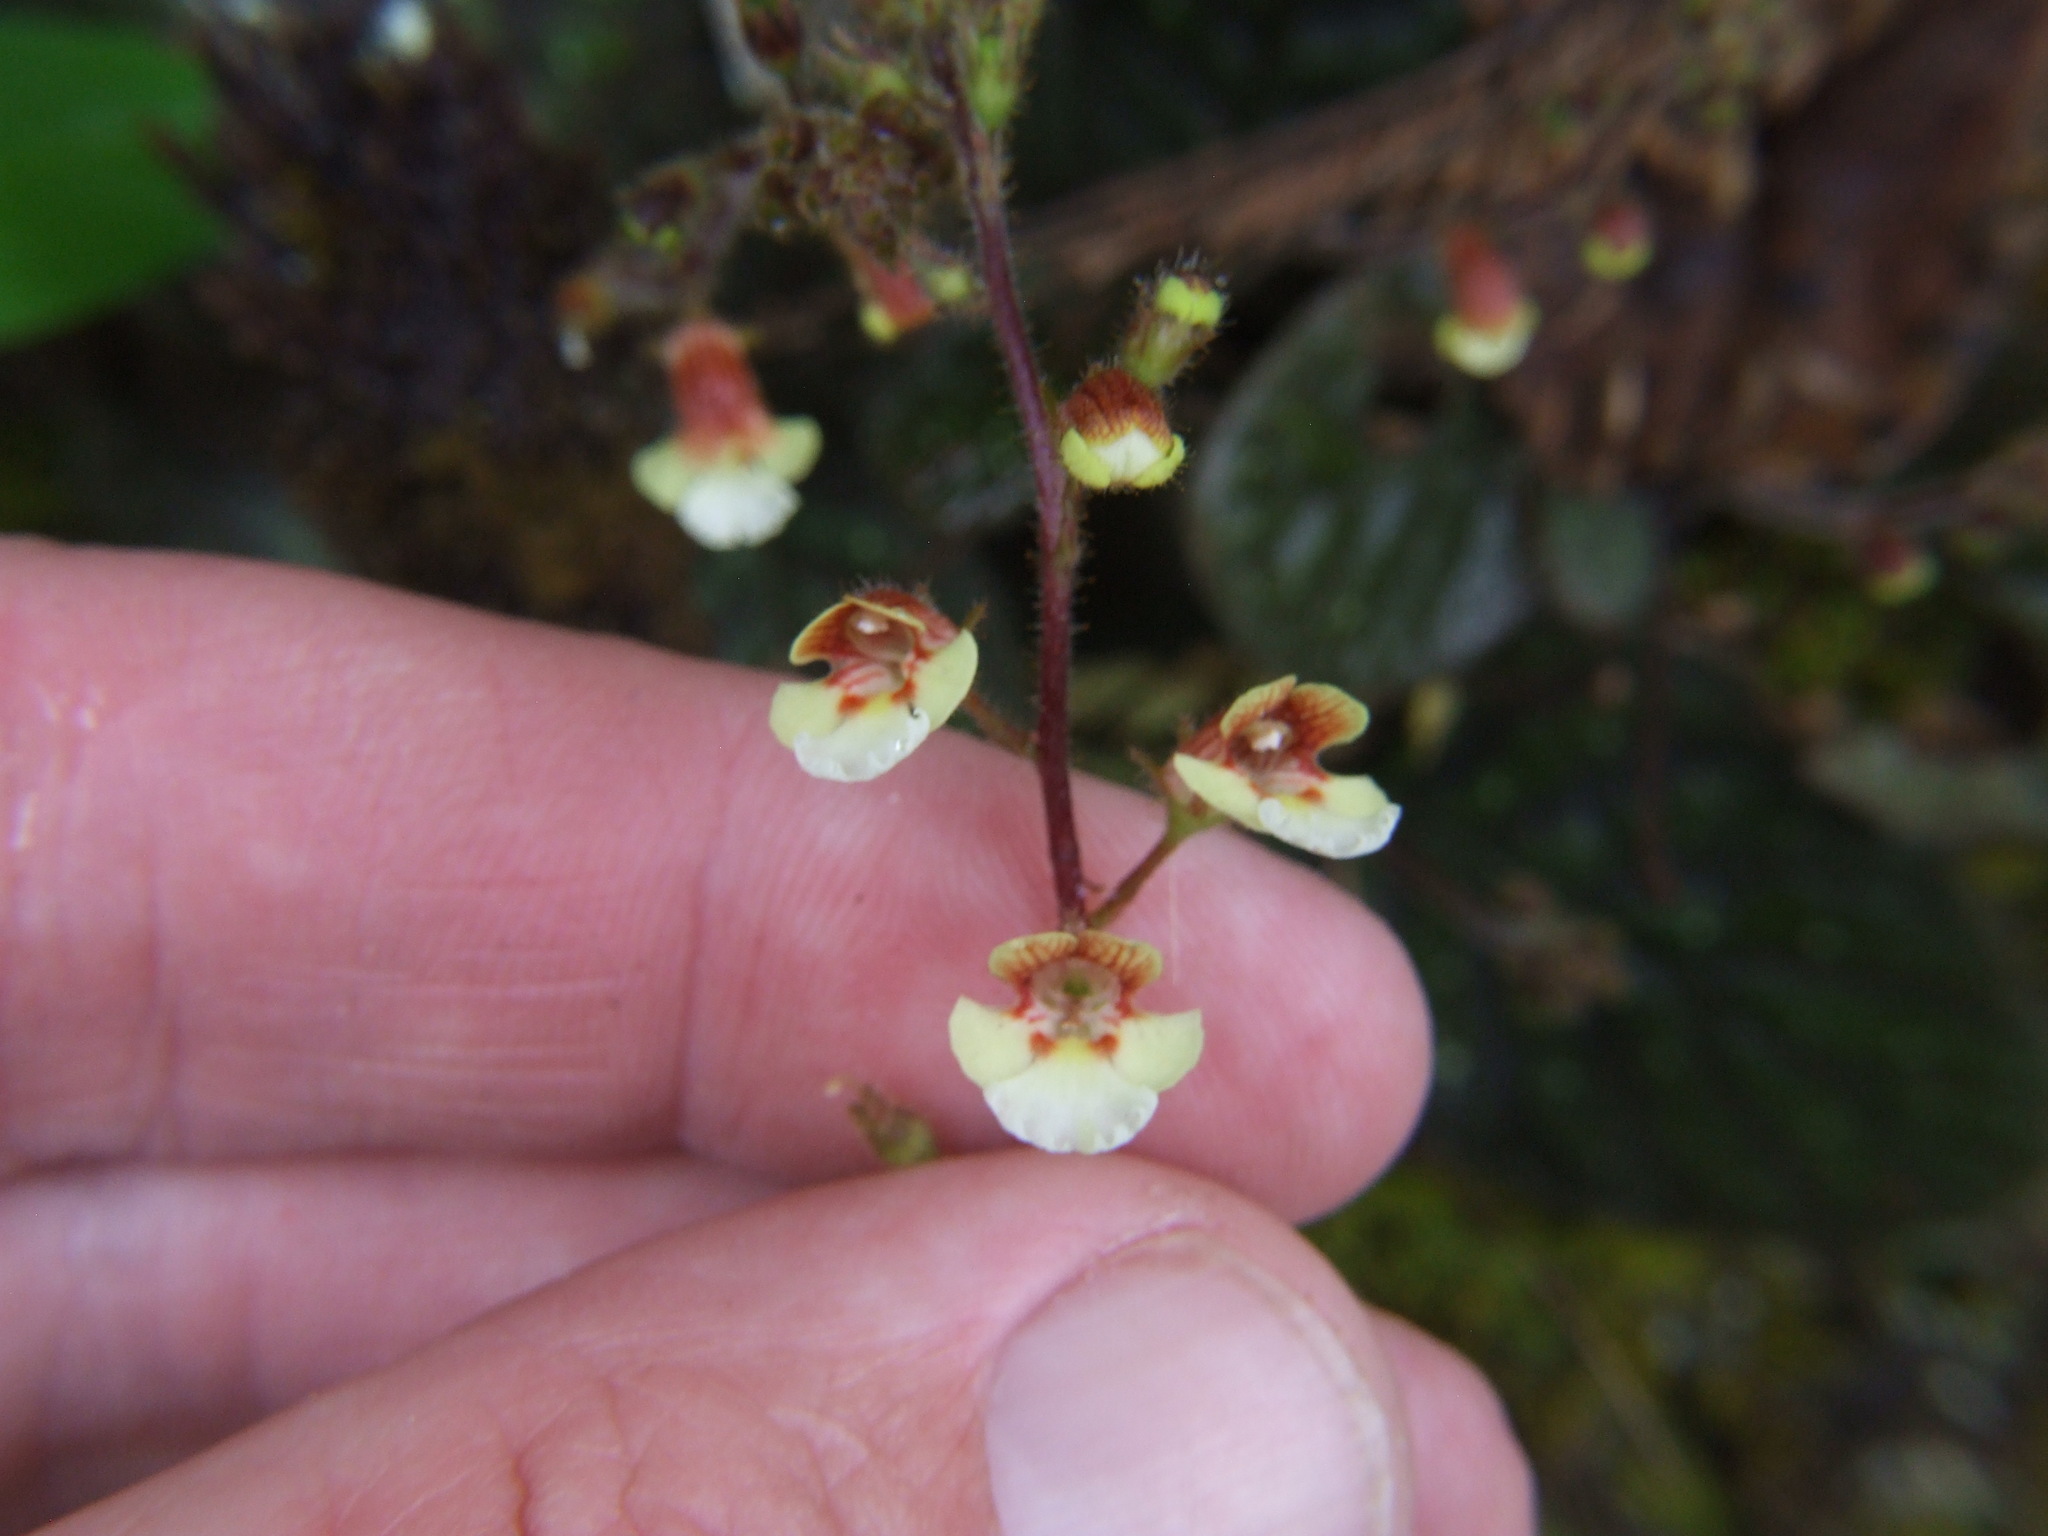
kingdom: Plantae
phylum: Tracheophyta
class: Magnoliopsida
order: Lamiales
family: Gesneriaceae
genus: Gloxinia
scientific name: Gloxinia erinoides
